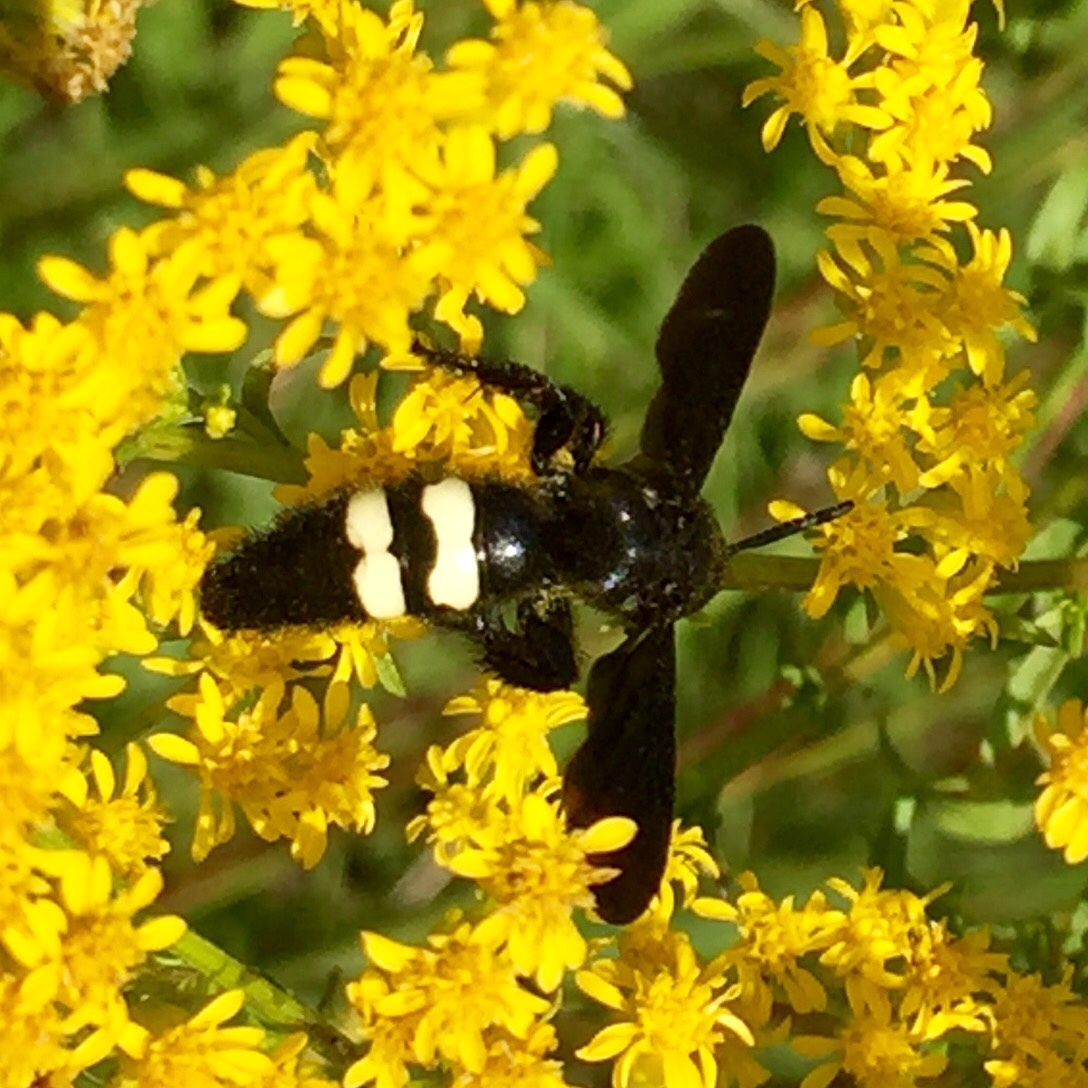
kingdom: Animalia
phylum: Arthropoda
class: Insecta
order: Hymenoptera
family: Scoliidae
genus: Scolia
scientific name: Scolia bicincta
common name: Double-banded scoliid wasp
